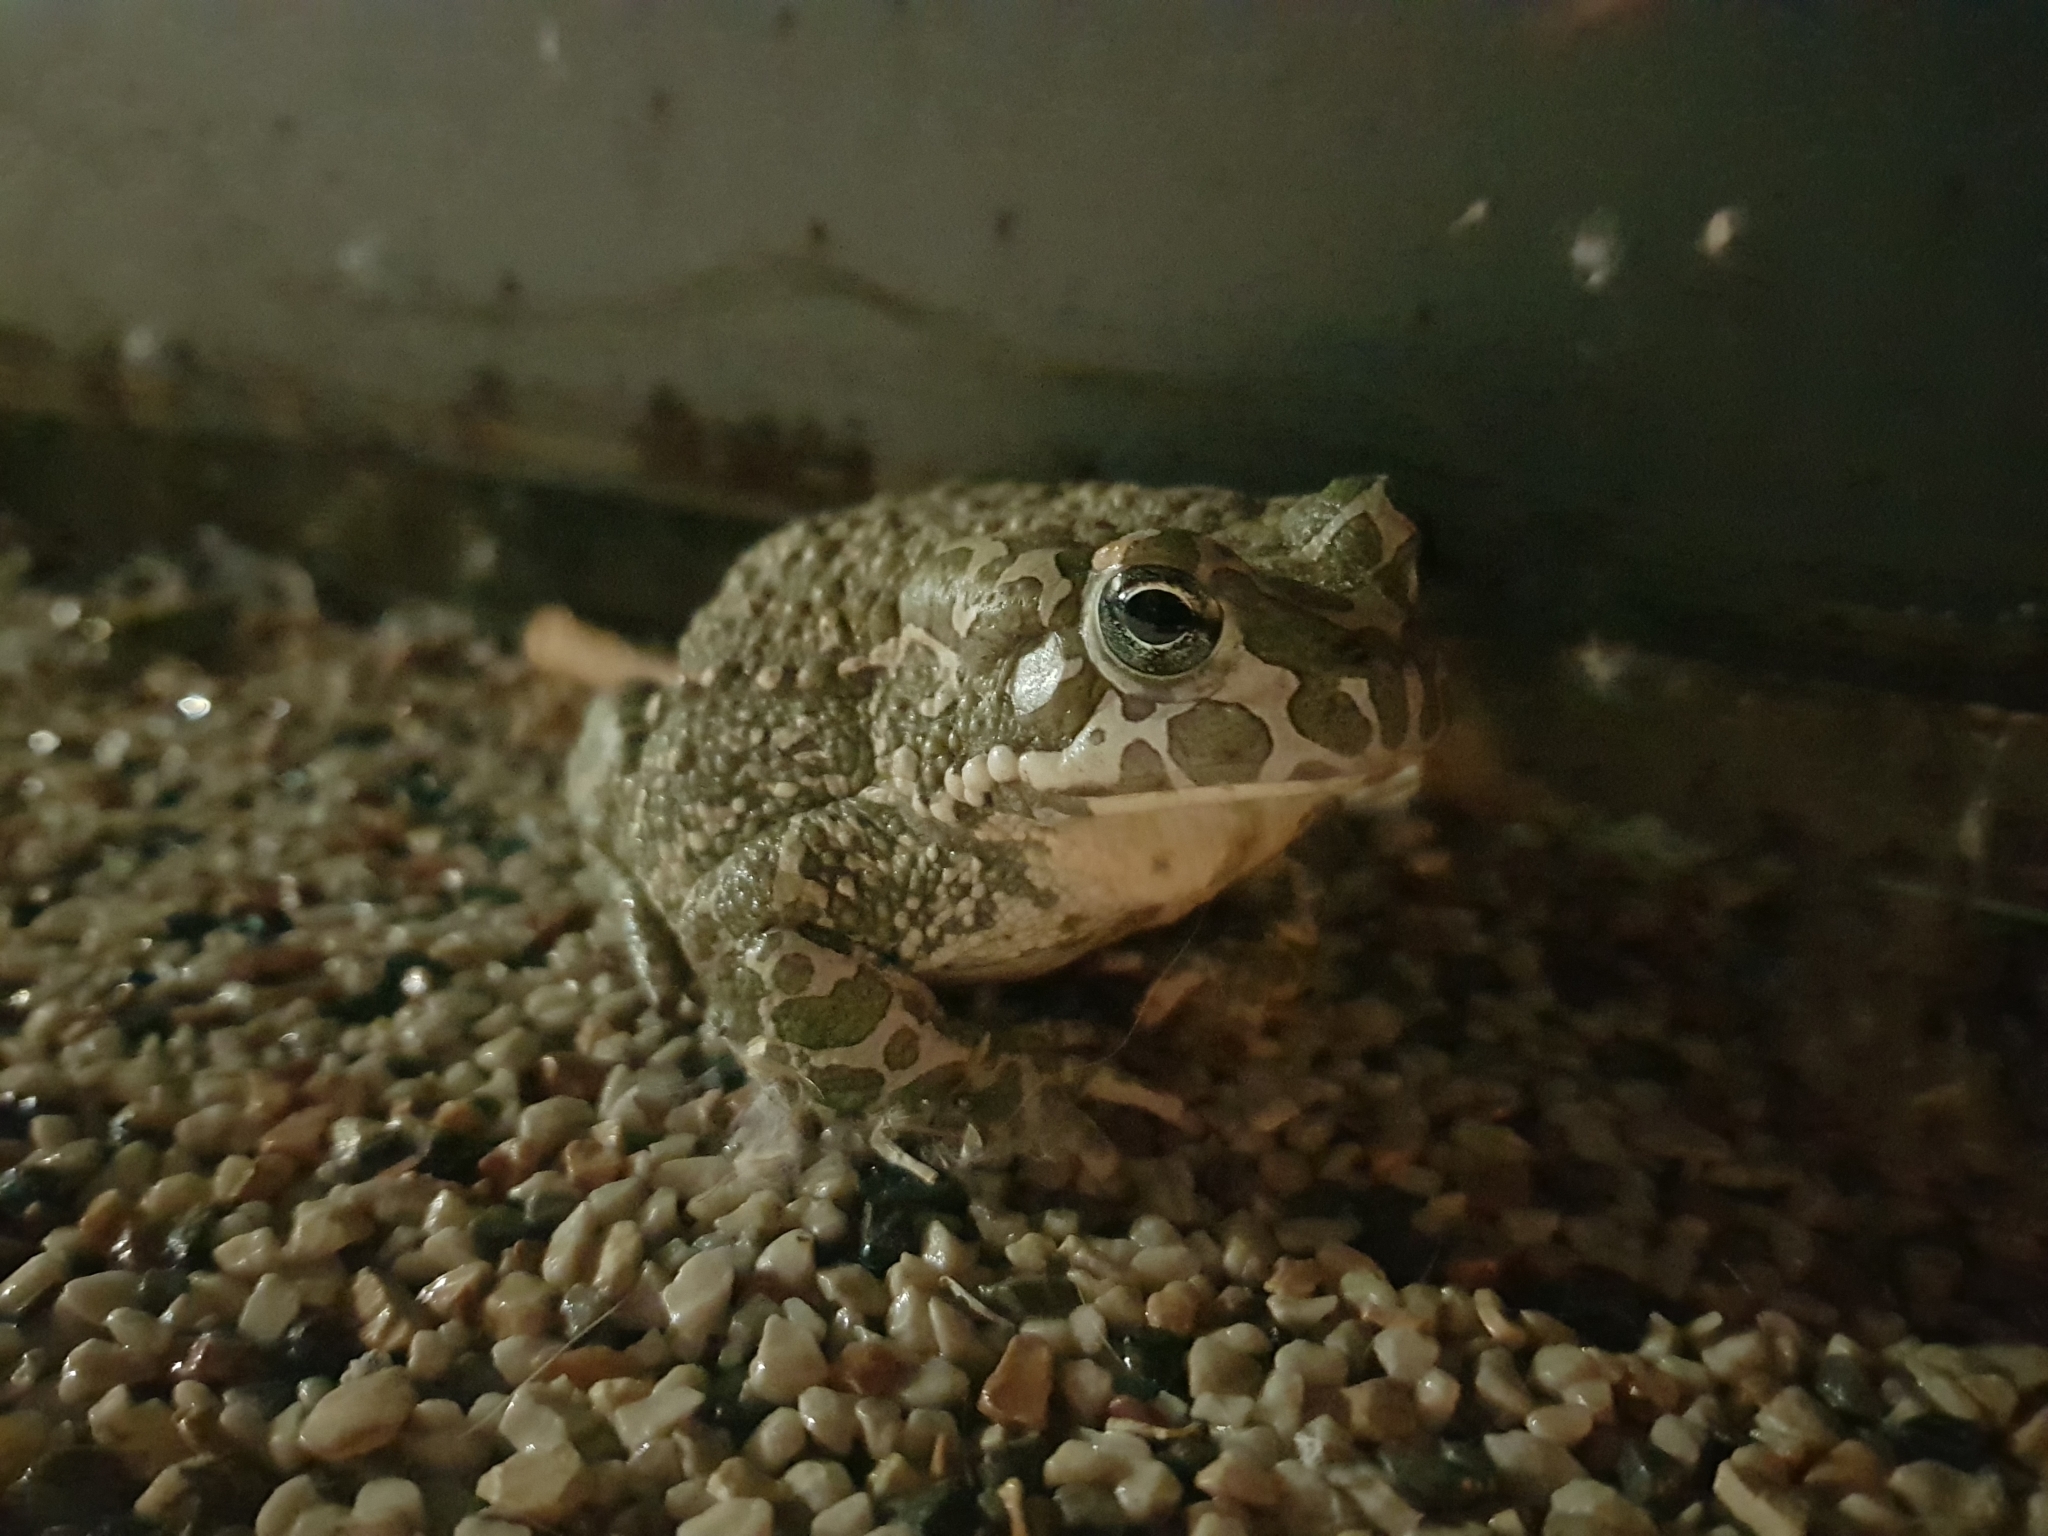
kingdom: Animalia
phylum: Chordata
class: Amphibia
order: Anura
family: Bufonidae
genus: Bufotes
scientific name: Bufotes viridis
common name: European green toad
